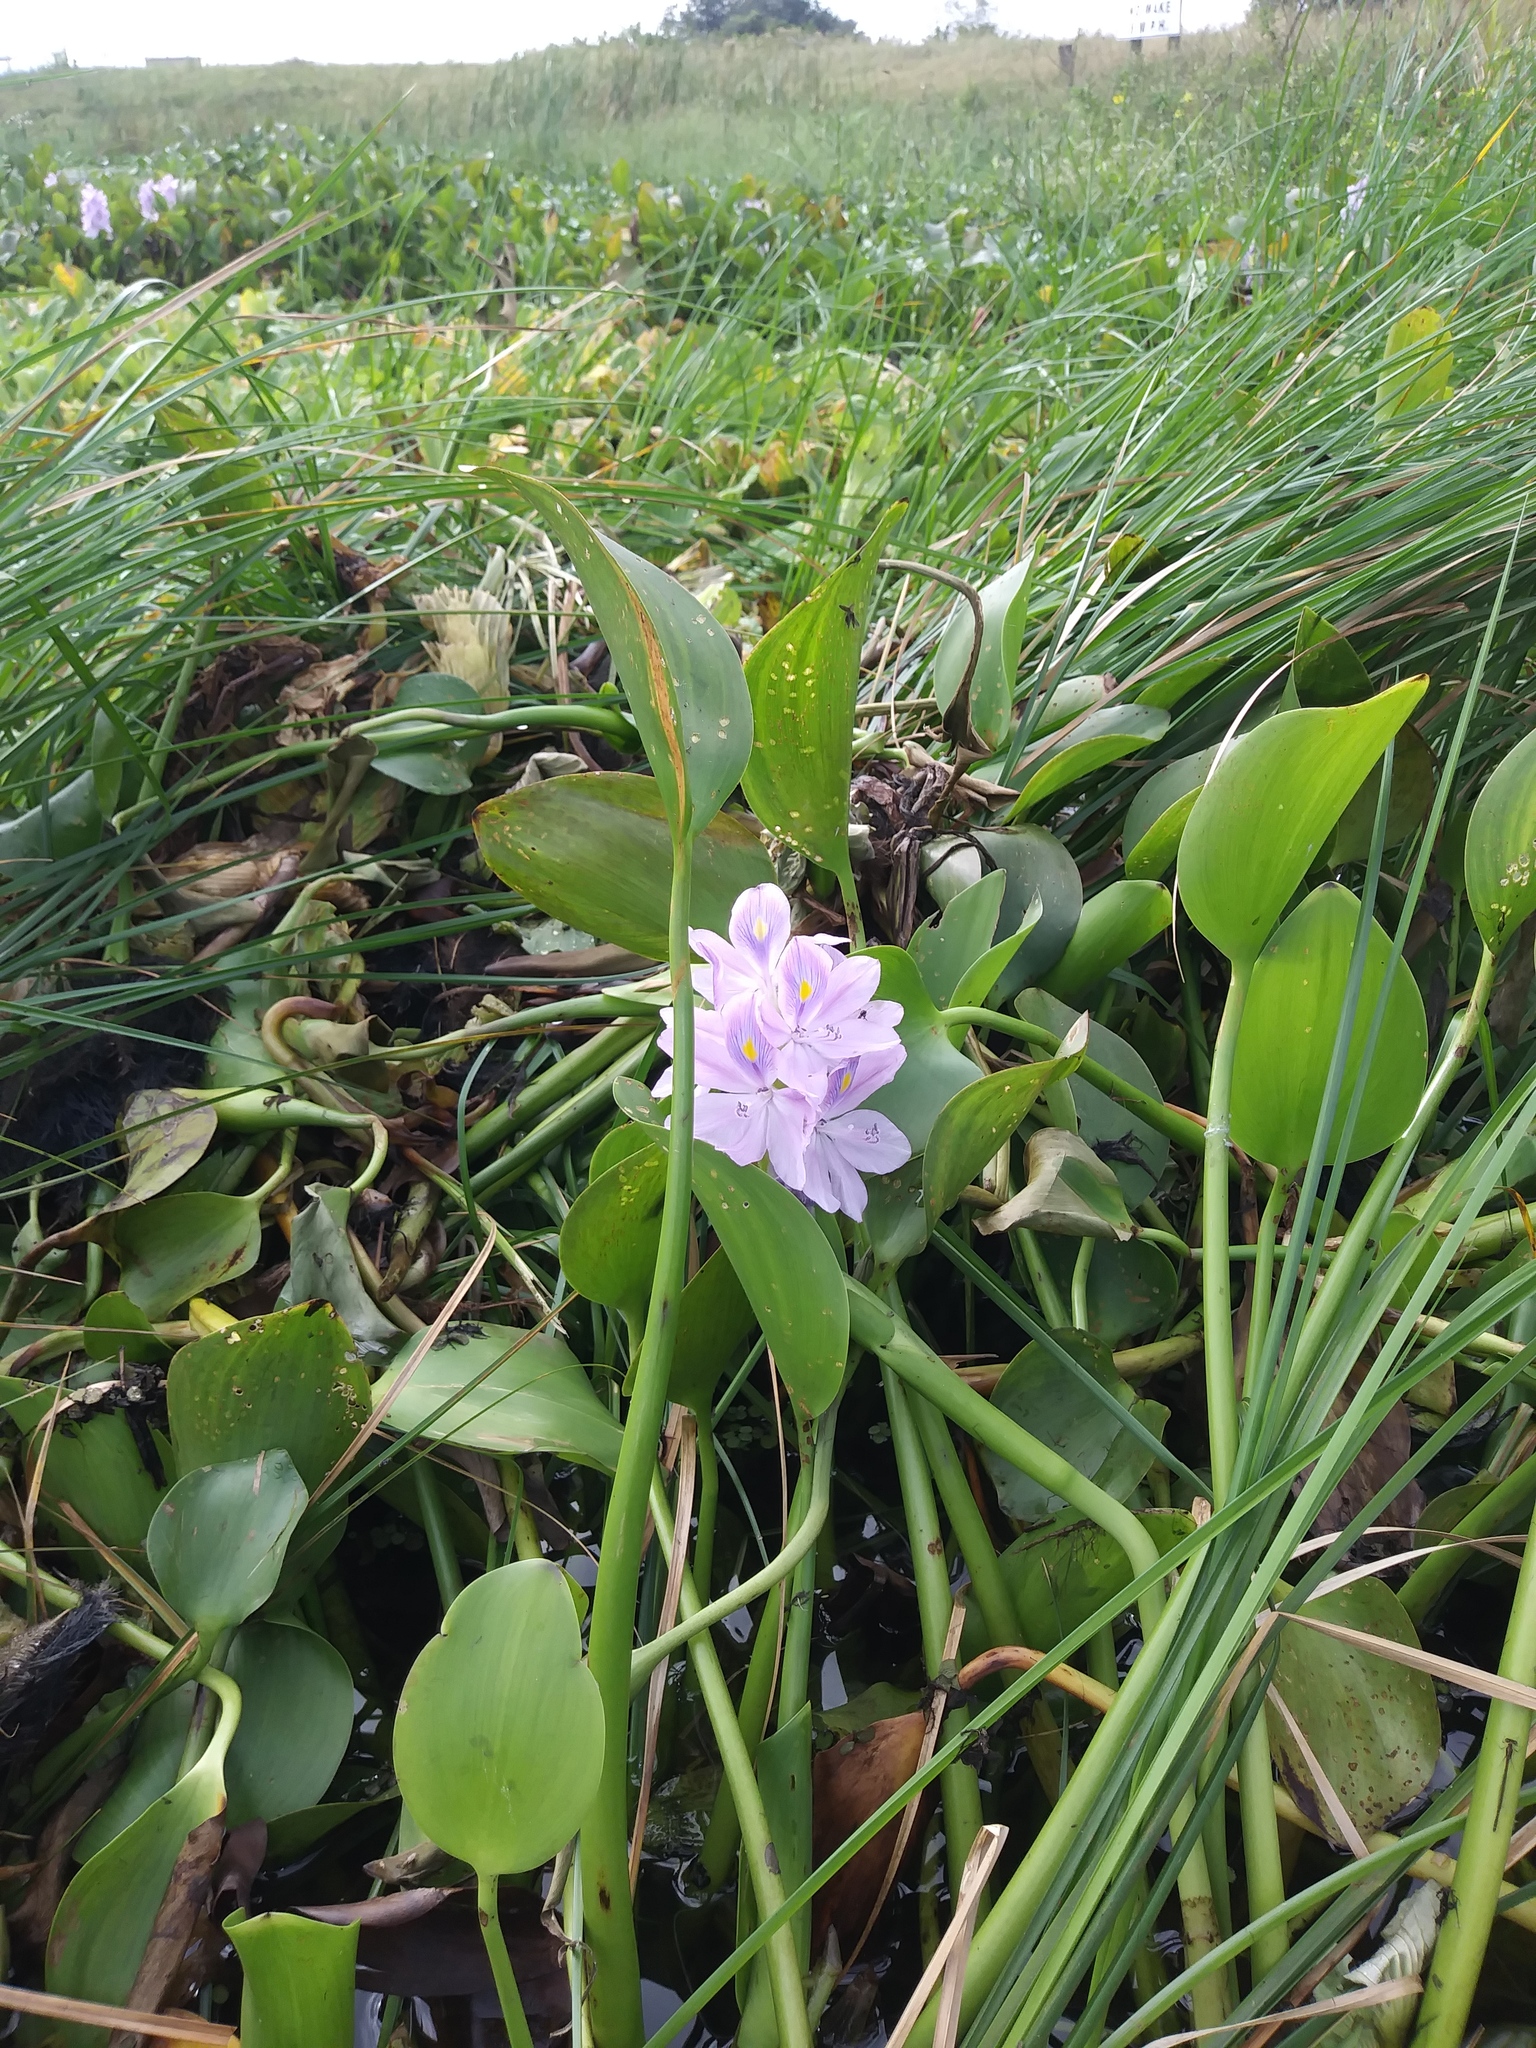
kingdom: Plantae
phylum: Tracheophyta
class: Liliopsida
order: Commelinales
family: Pontederiaceae
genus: Pontederia
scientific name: Pontederia crassipes
